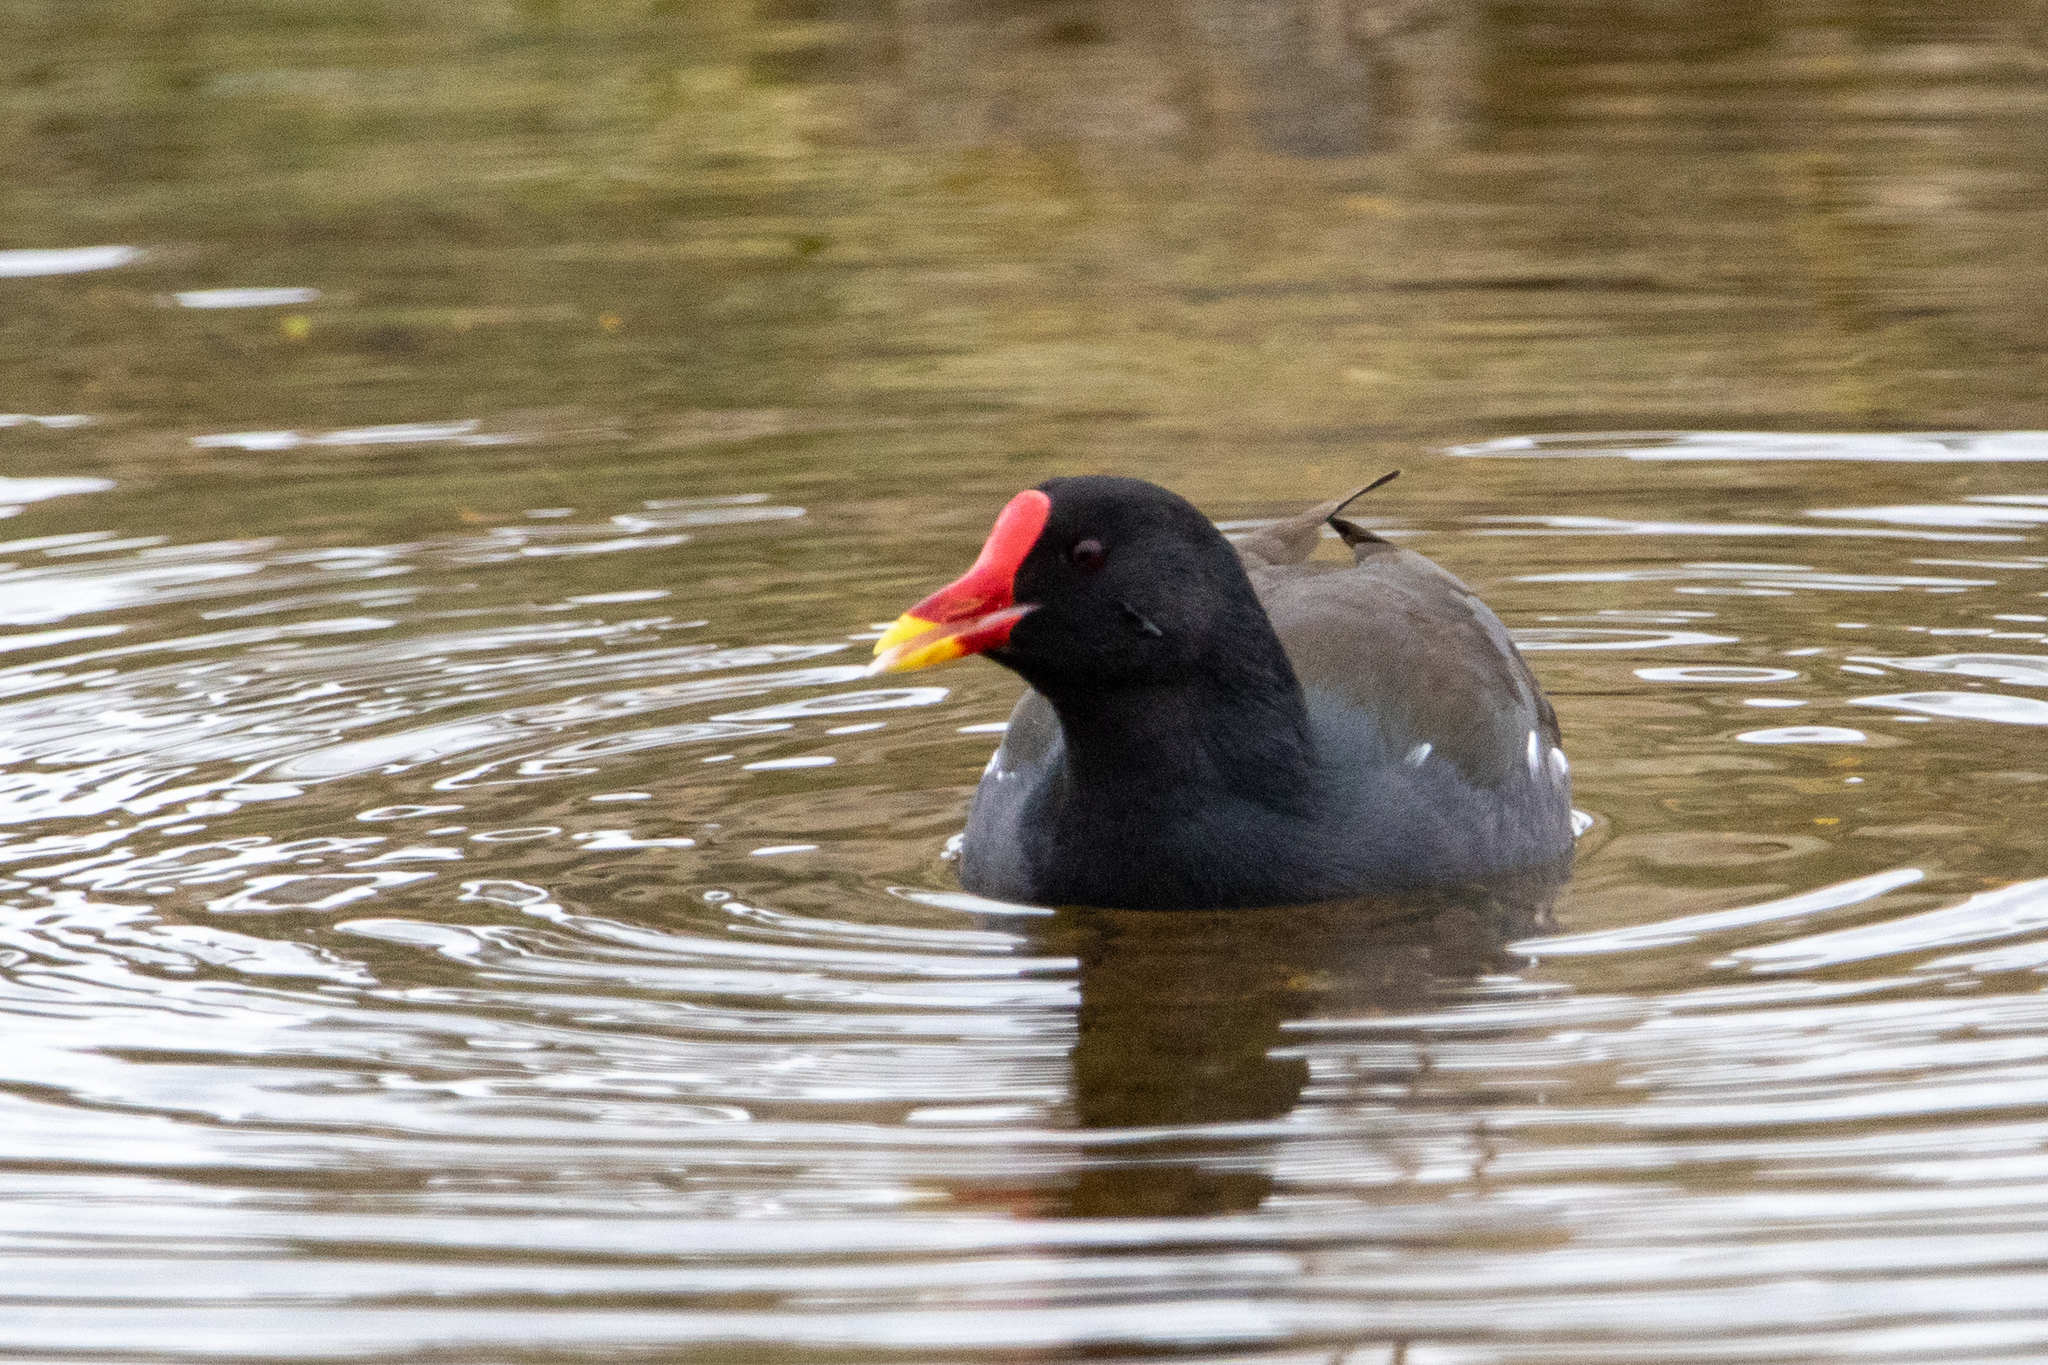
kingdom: Animalia
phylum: Chordata
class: Aves
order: Gruiformes
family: Rallidae
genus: Gallinula
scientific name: Gallinula chloropus
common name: Common moorhen
